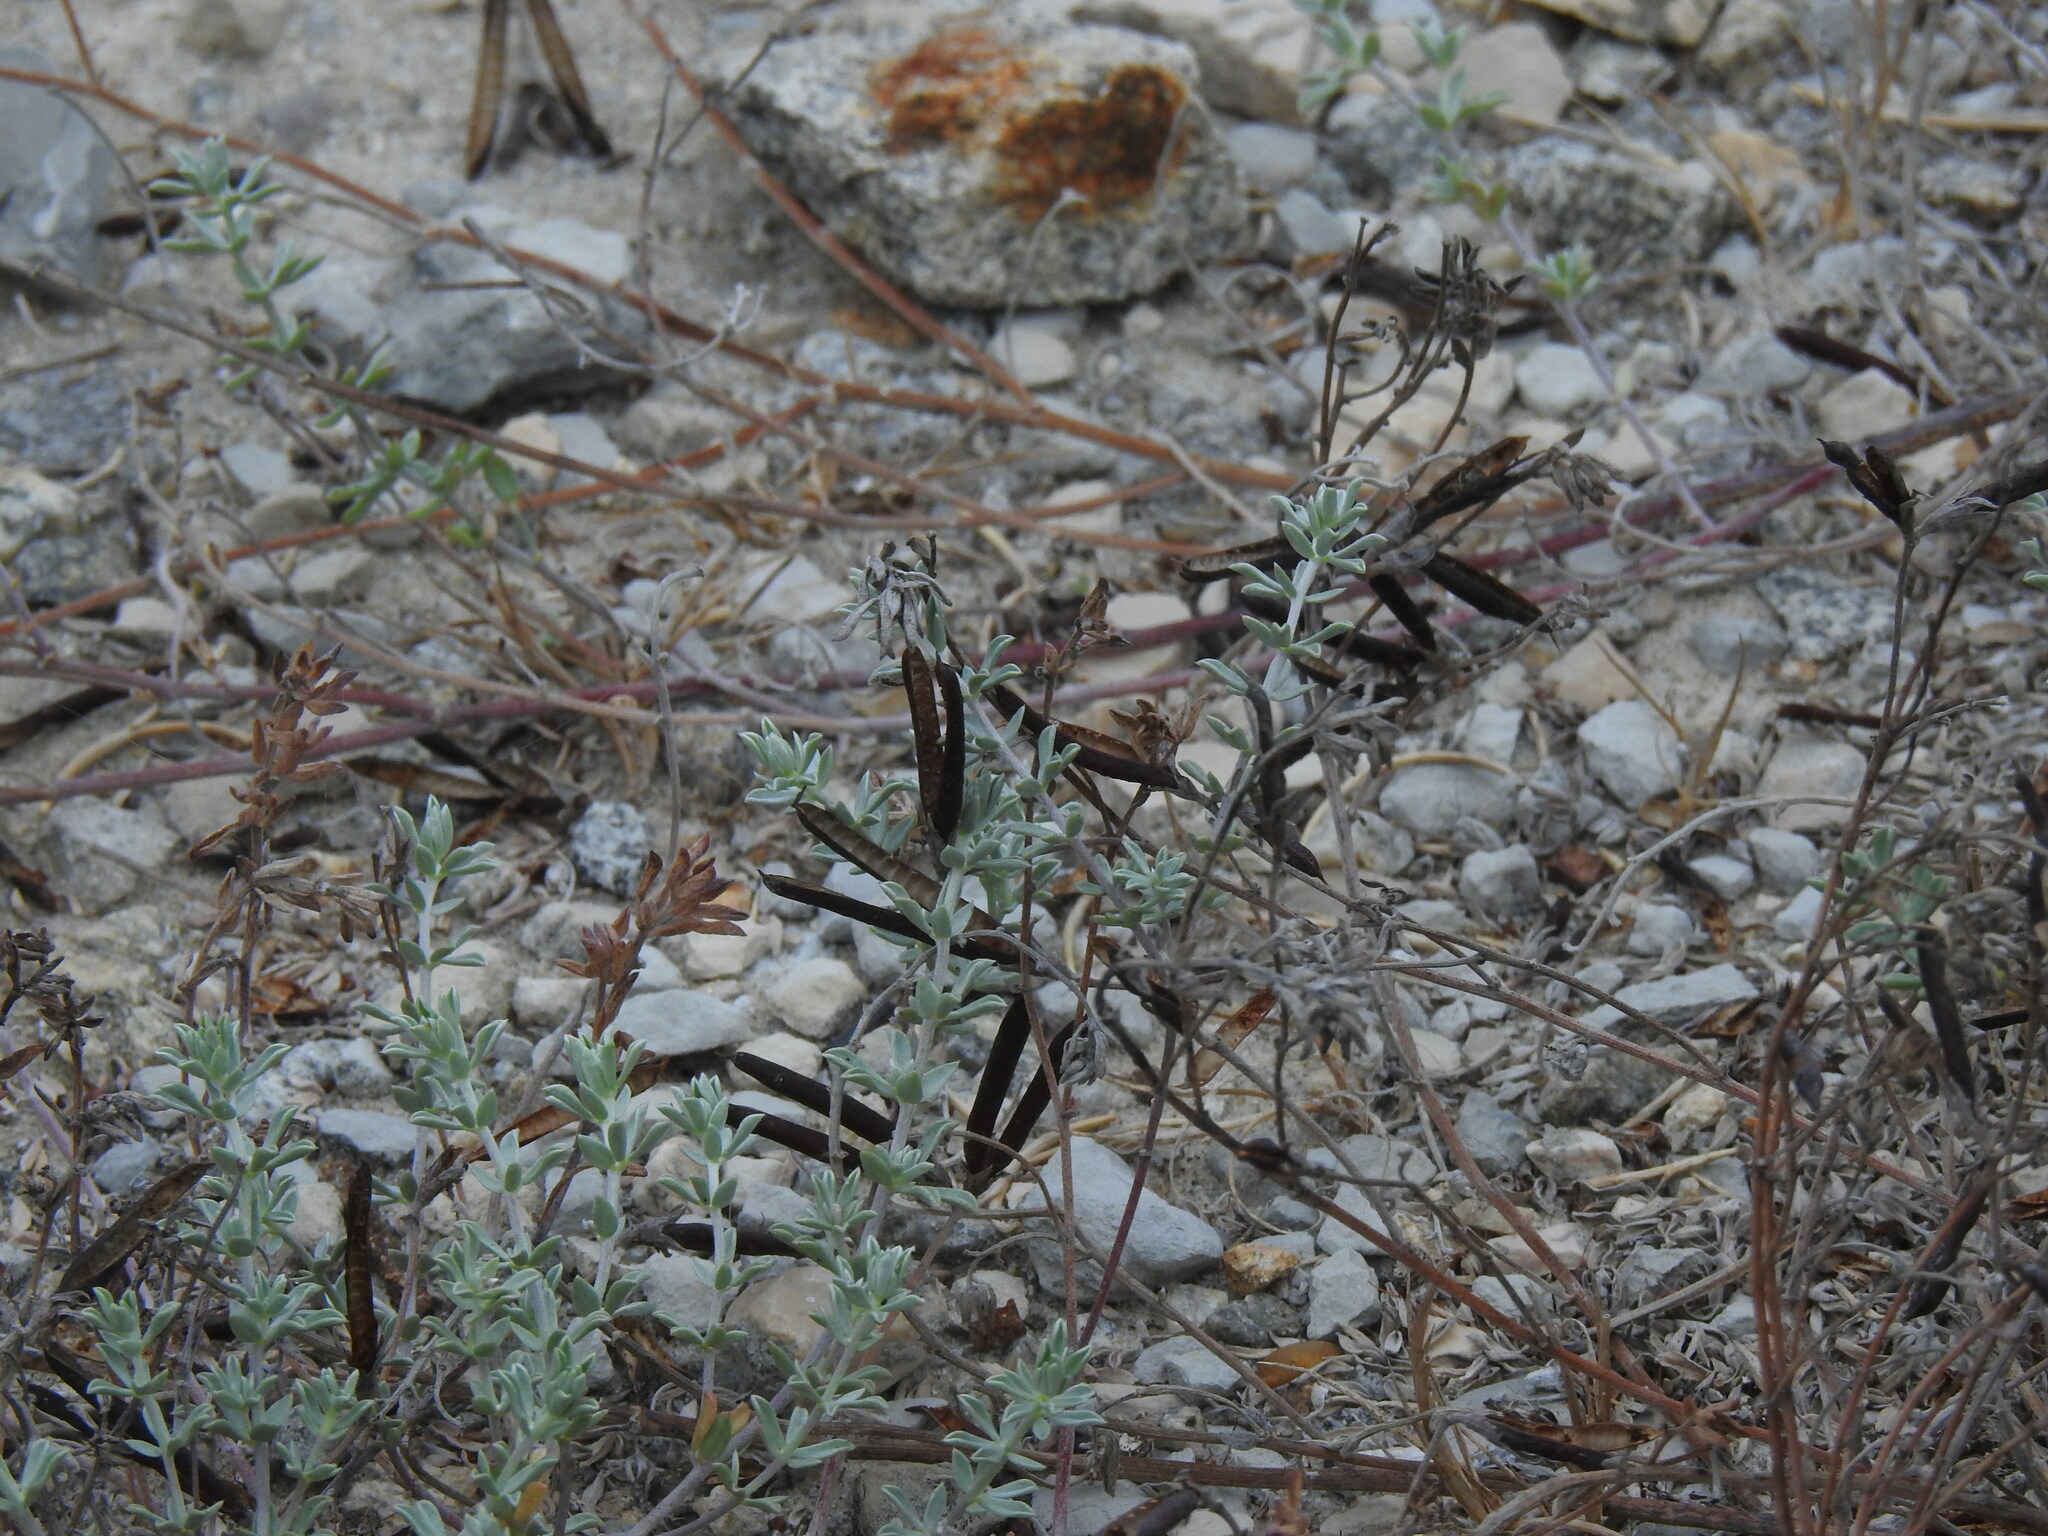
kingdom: Plantae
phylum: Tracheophyta
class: Magnoliopsida
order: Fabales
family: Fabaceae
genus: Lotus
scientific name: Lotus creticus
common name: Cretan bird's-foot trefoil
